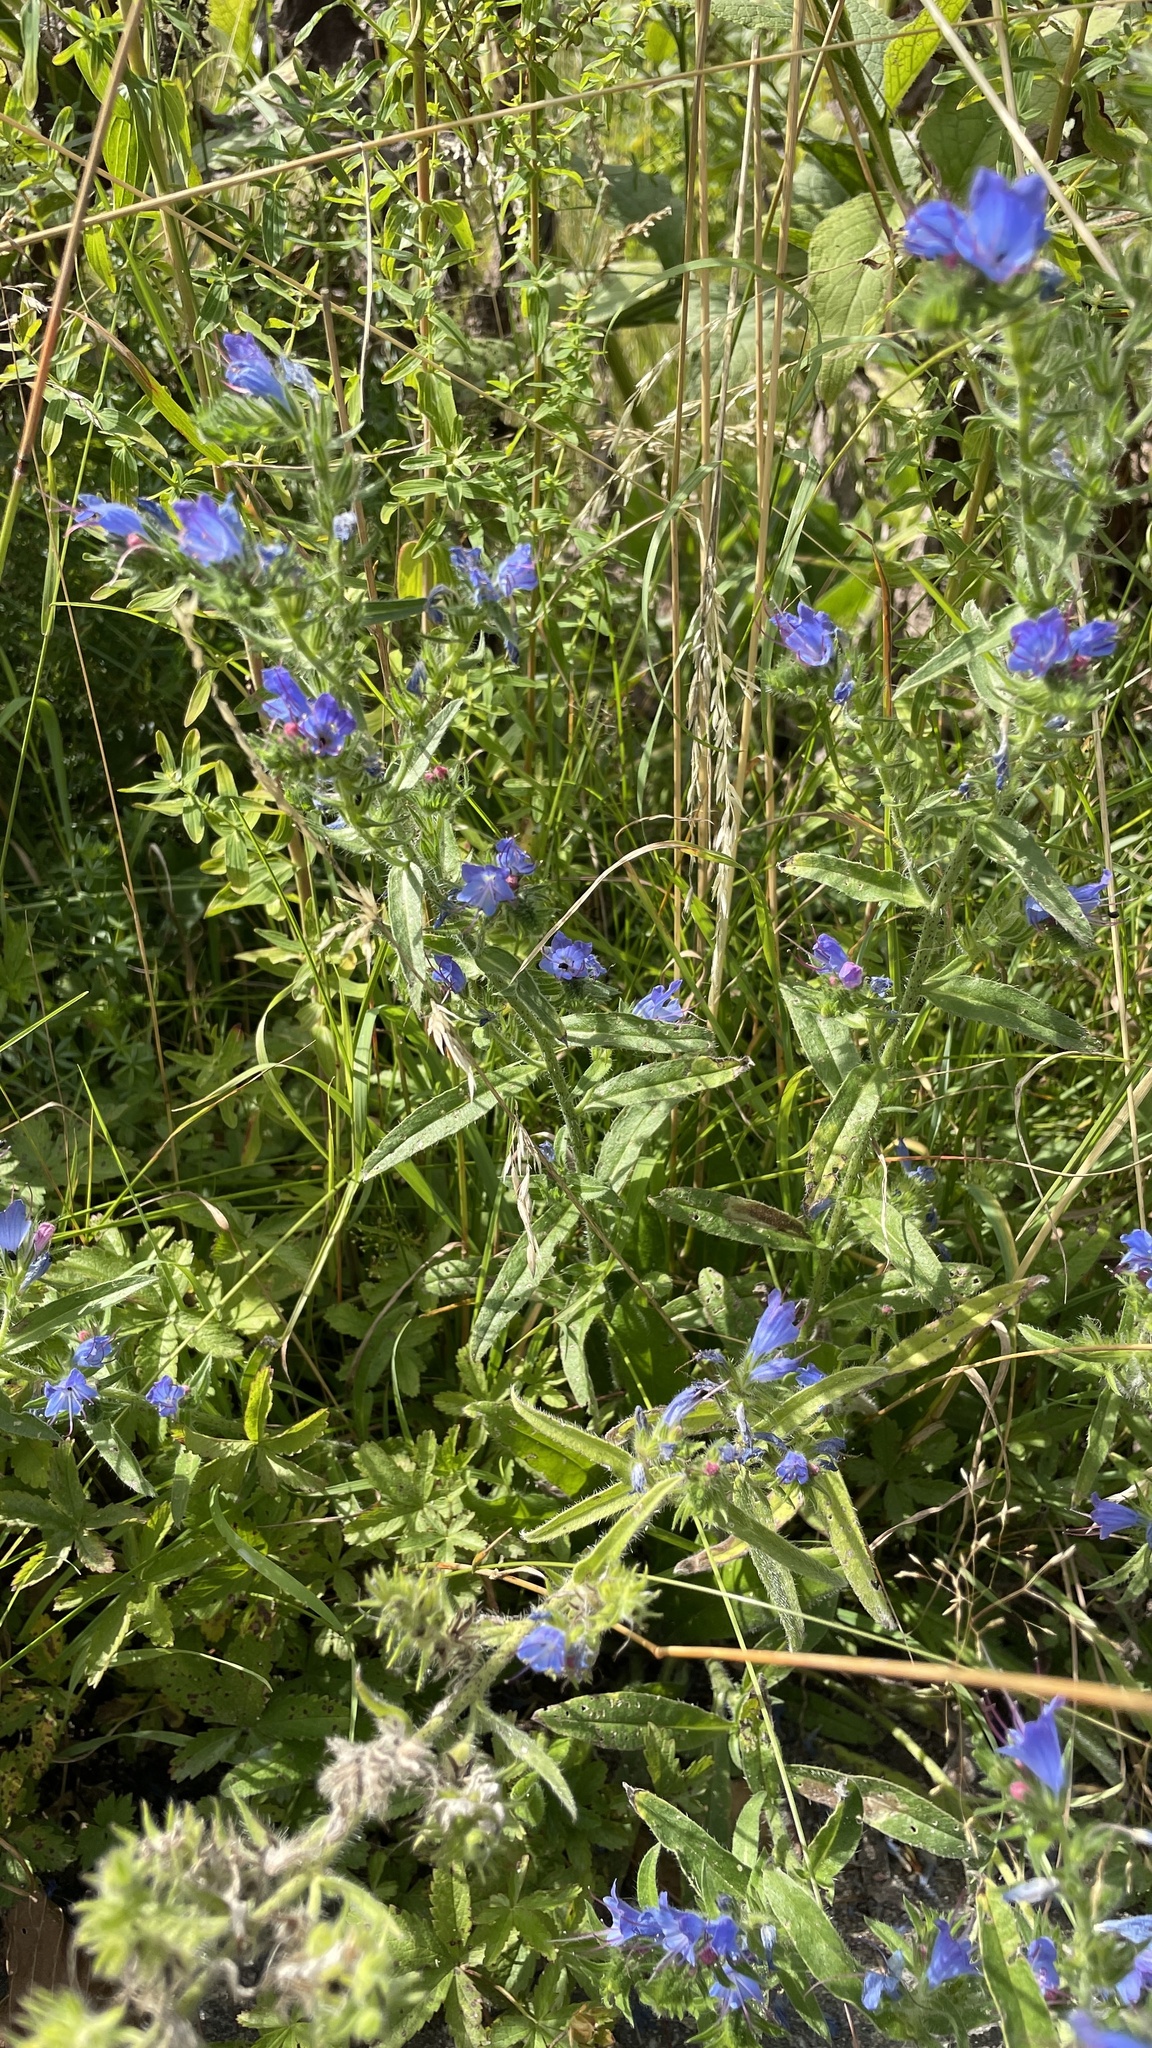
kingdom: Plantae
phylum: Tracheophyta
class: Magnoliopsida
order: Boraginales
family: Boraginaceae
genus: Echium
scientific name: Echium vulgare
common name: Common viper's bugloss
